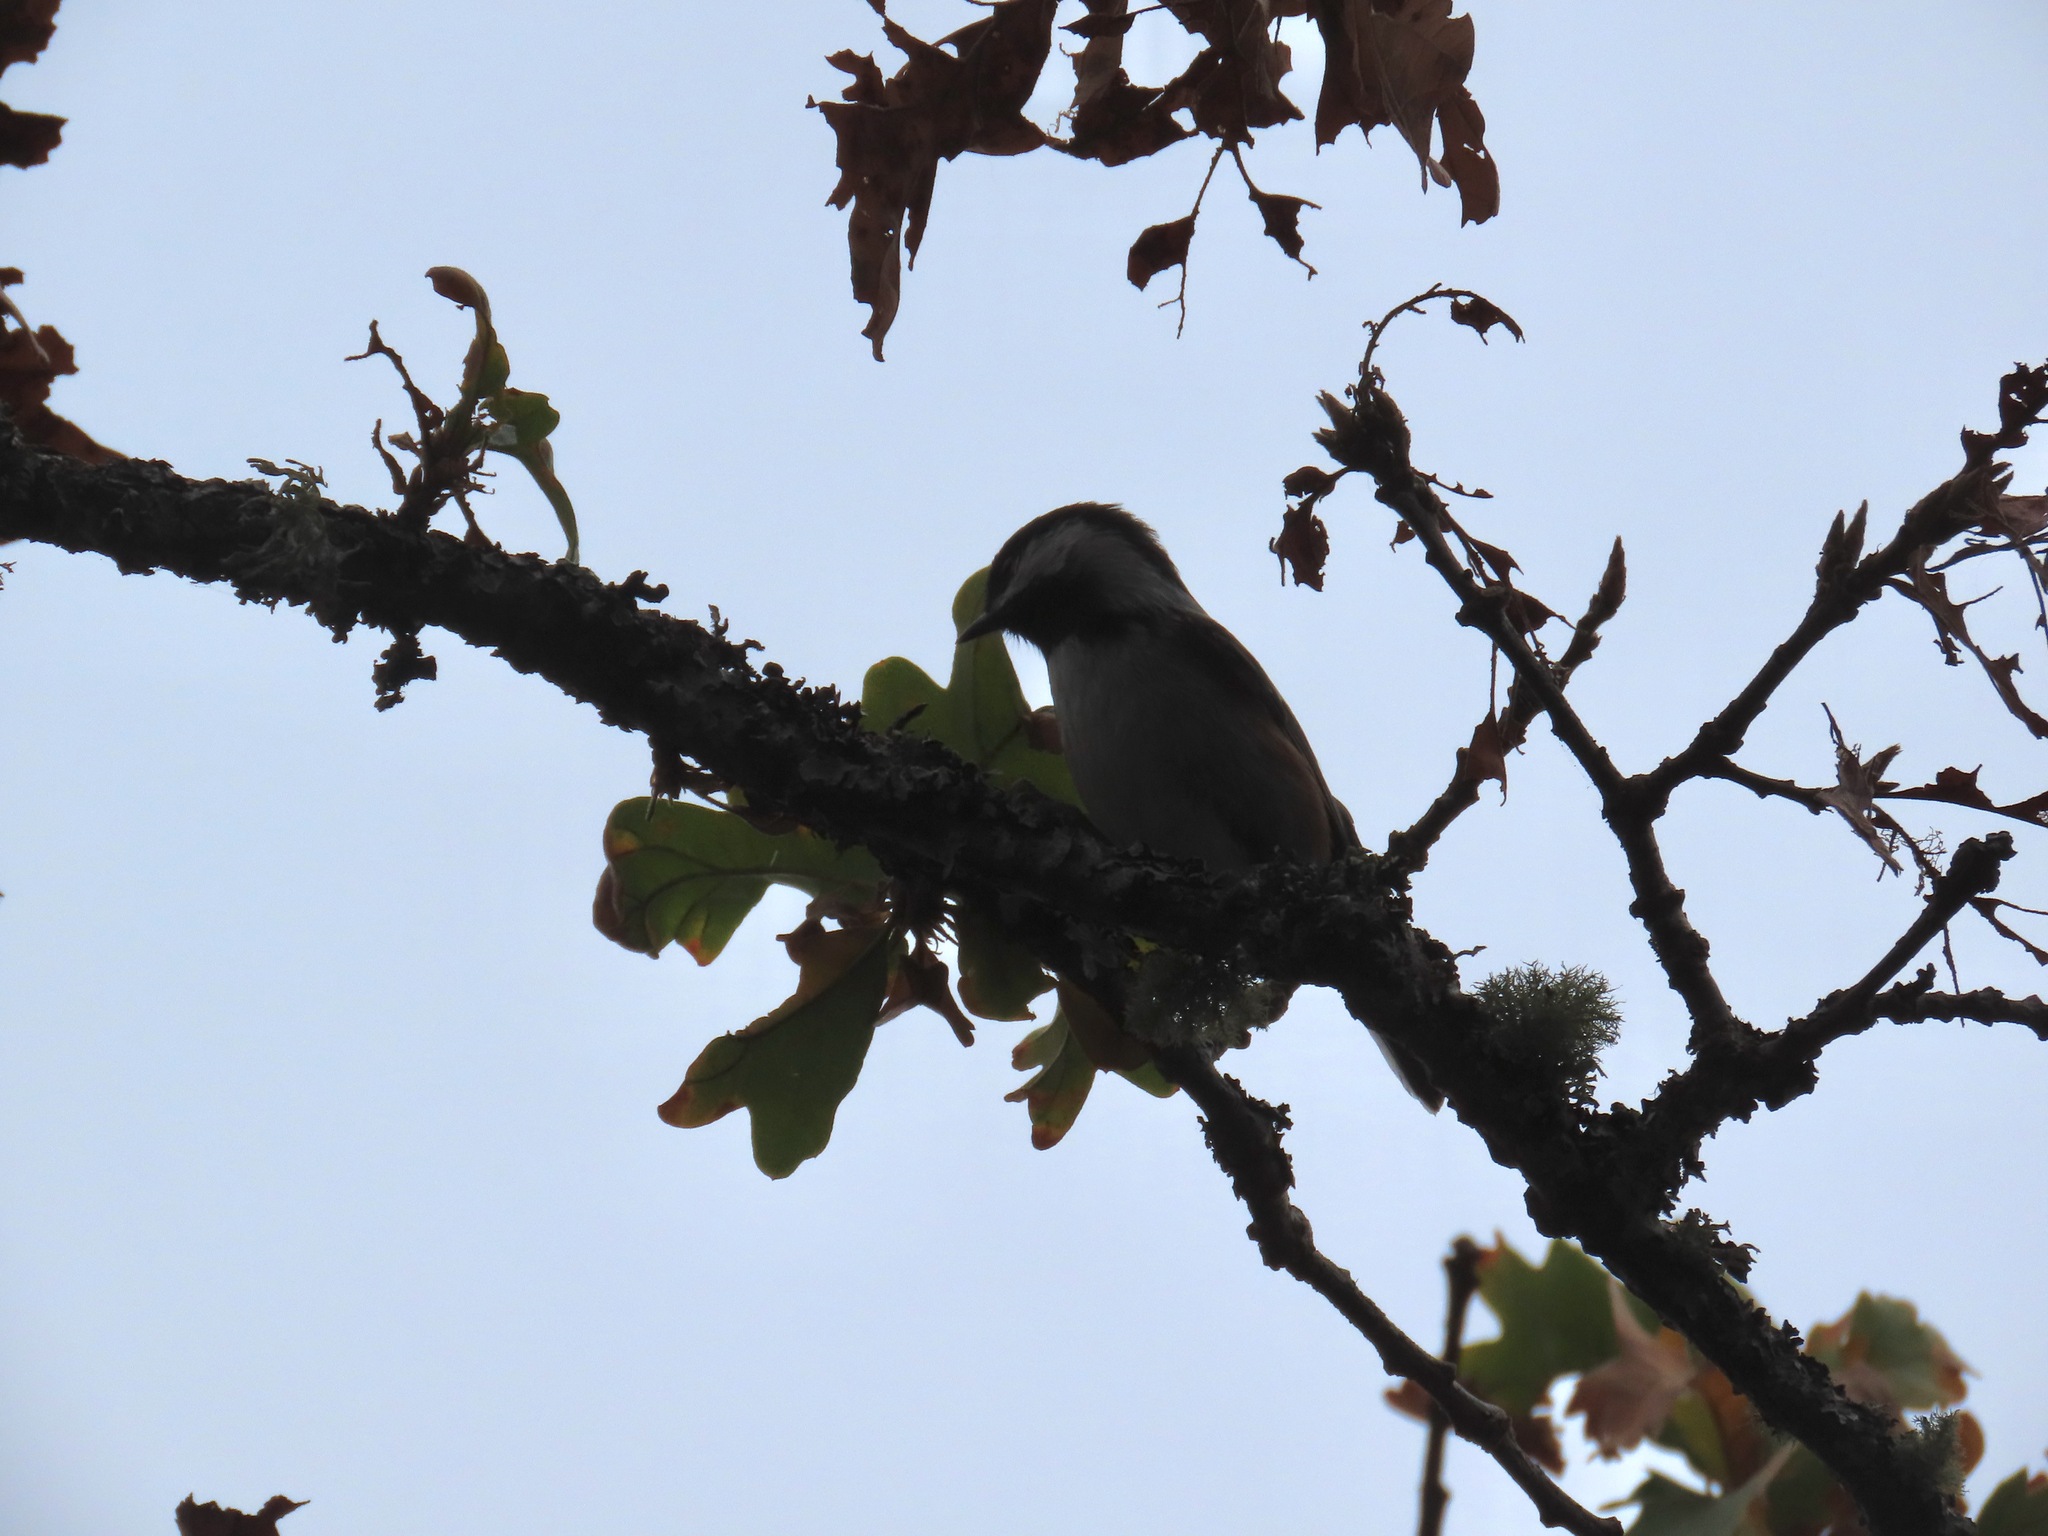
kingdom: Animalia
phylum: Chordata
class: Aves
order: Passeriformes
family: Paridae
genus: Poecile
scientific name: Poecile rufescens
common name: Chestnut-backed chickadee
